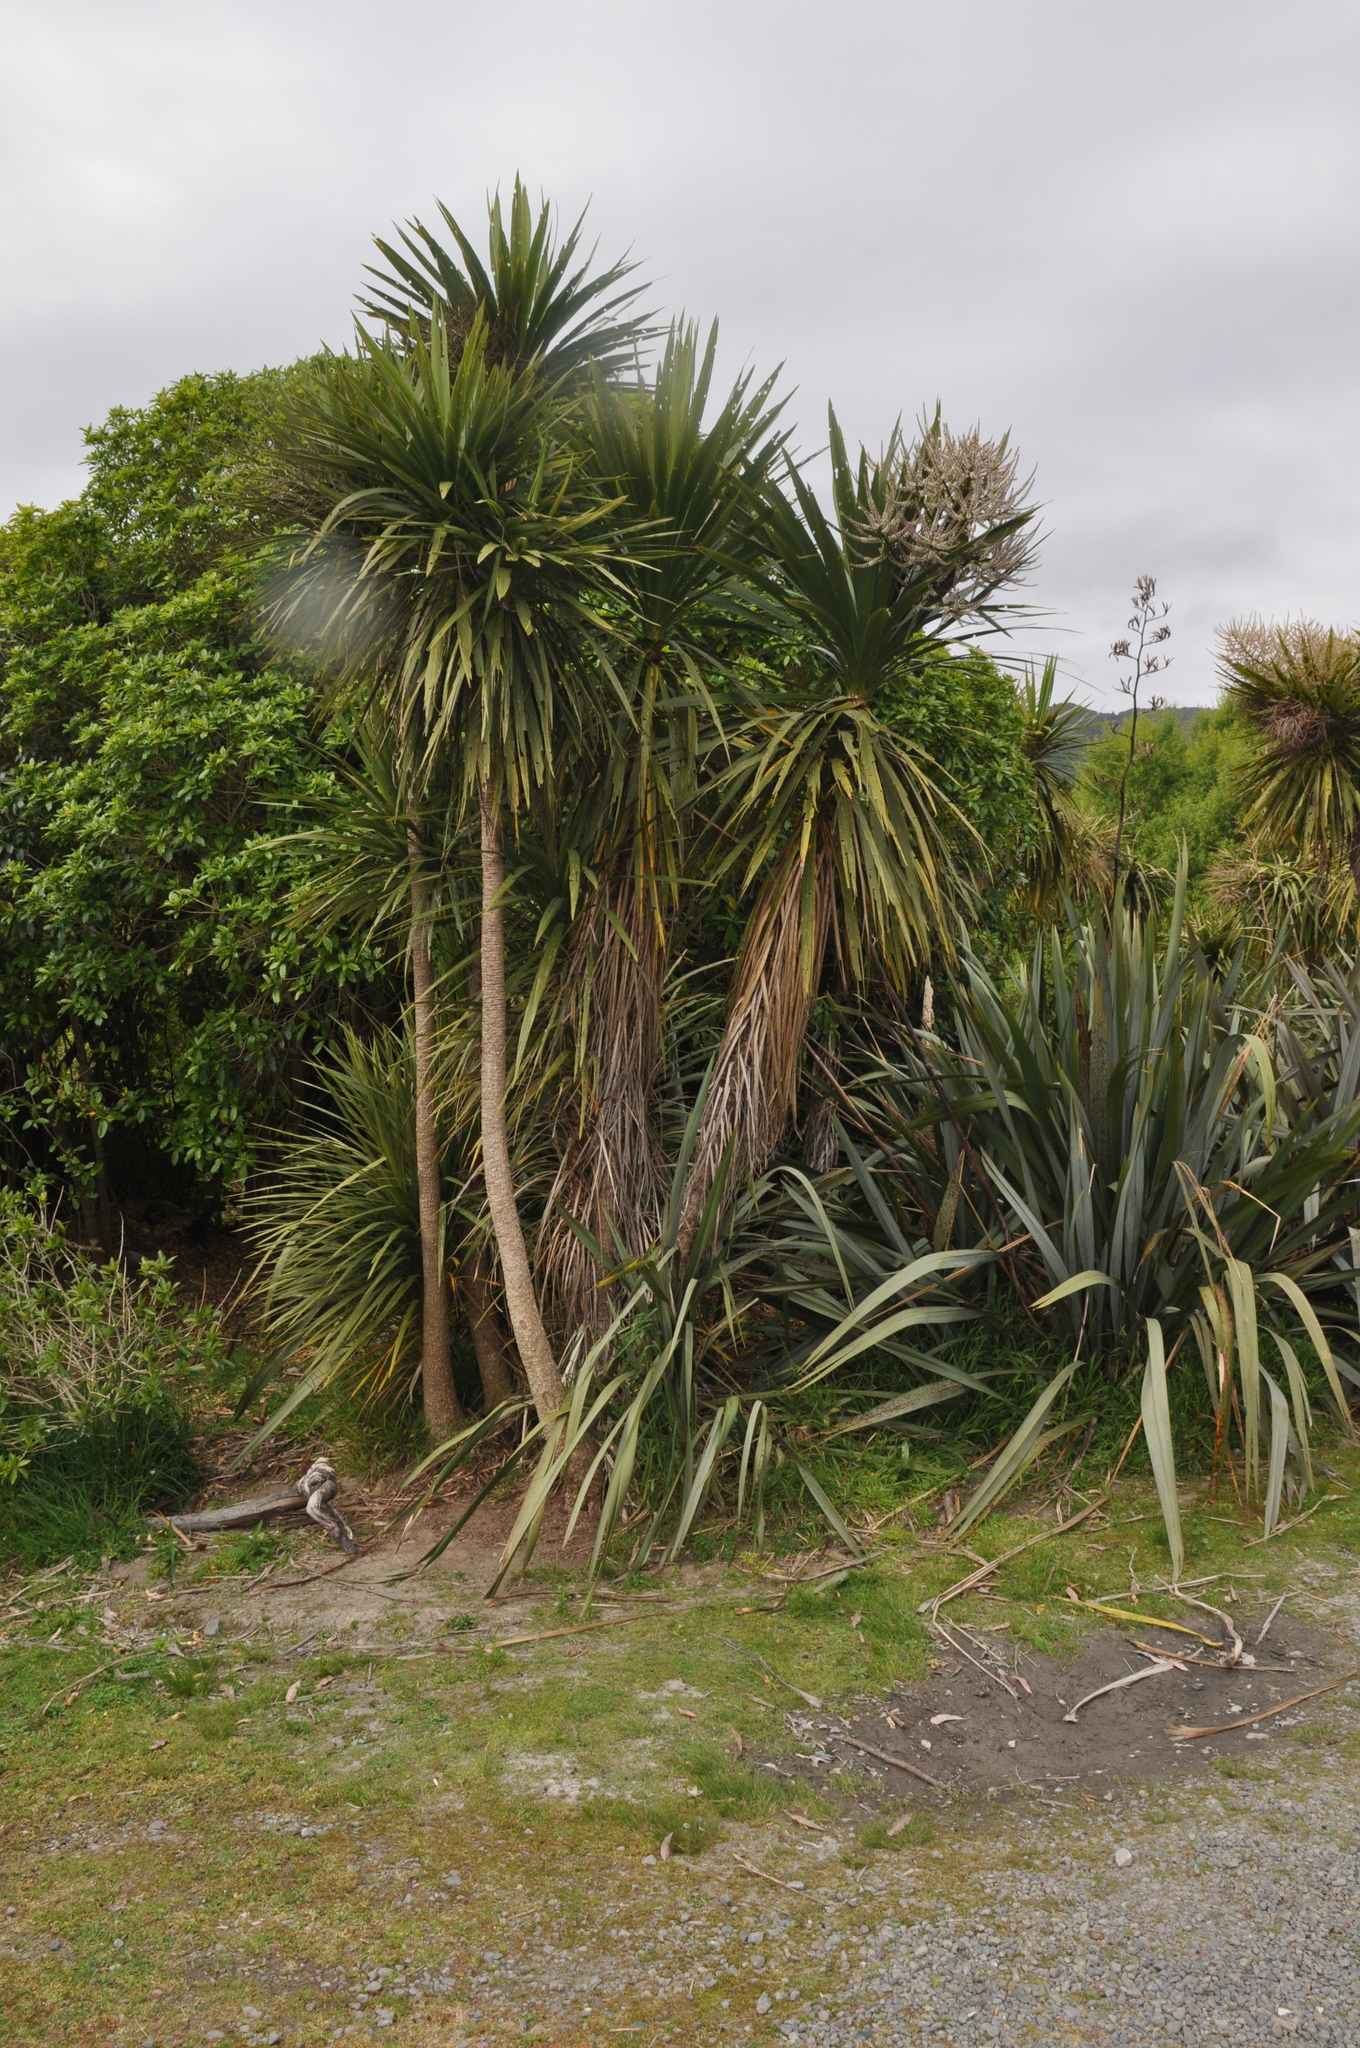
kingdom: Plantae
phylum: Tracheophyta
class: Liliopsida
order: Asparagales
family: Asparagaceae
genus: Cordyline
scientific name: Cordyline australis
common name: Cabbage-palm
